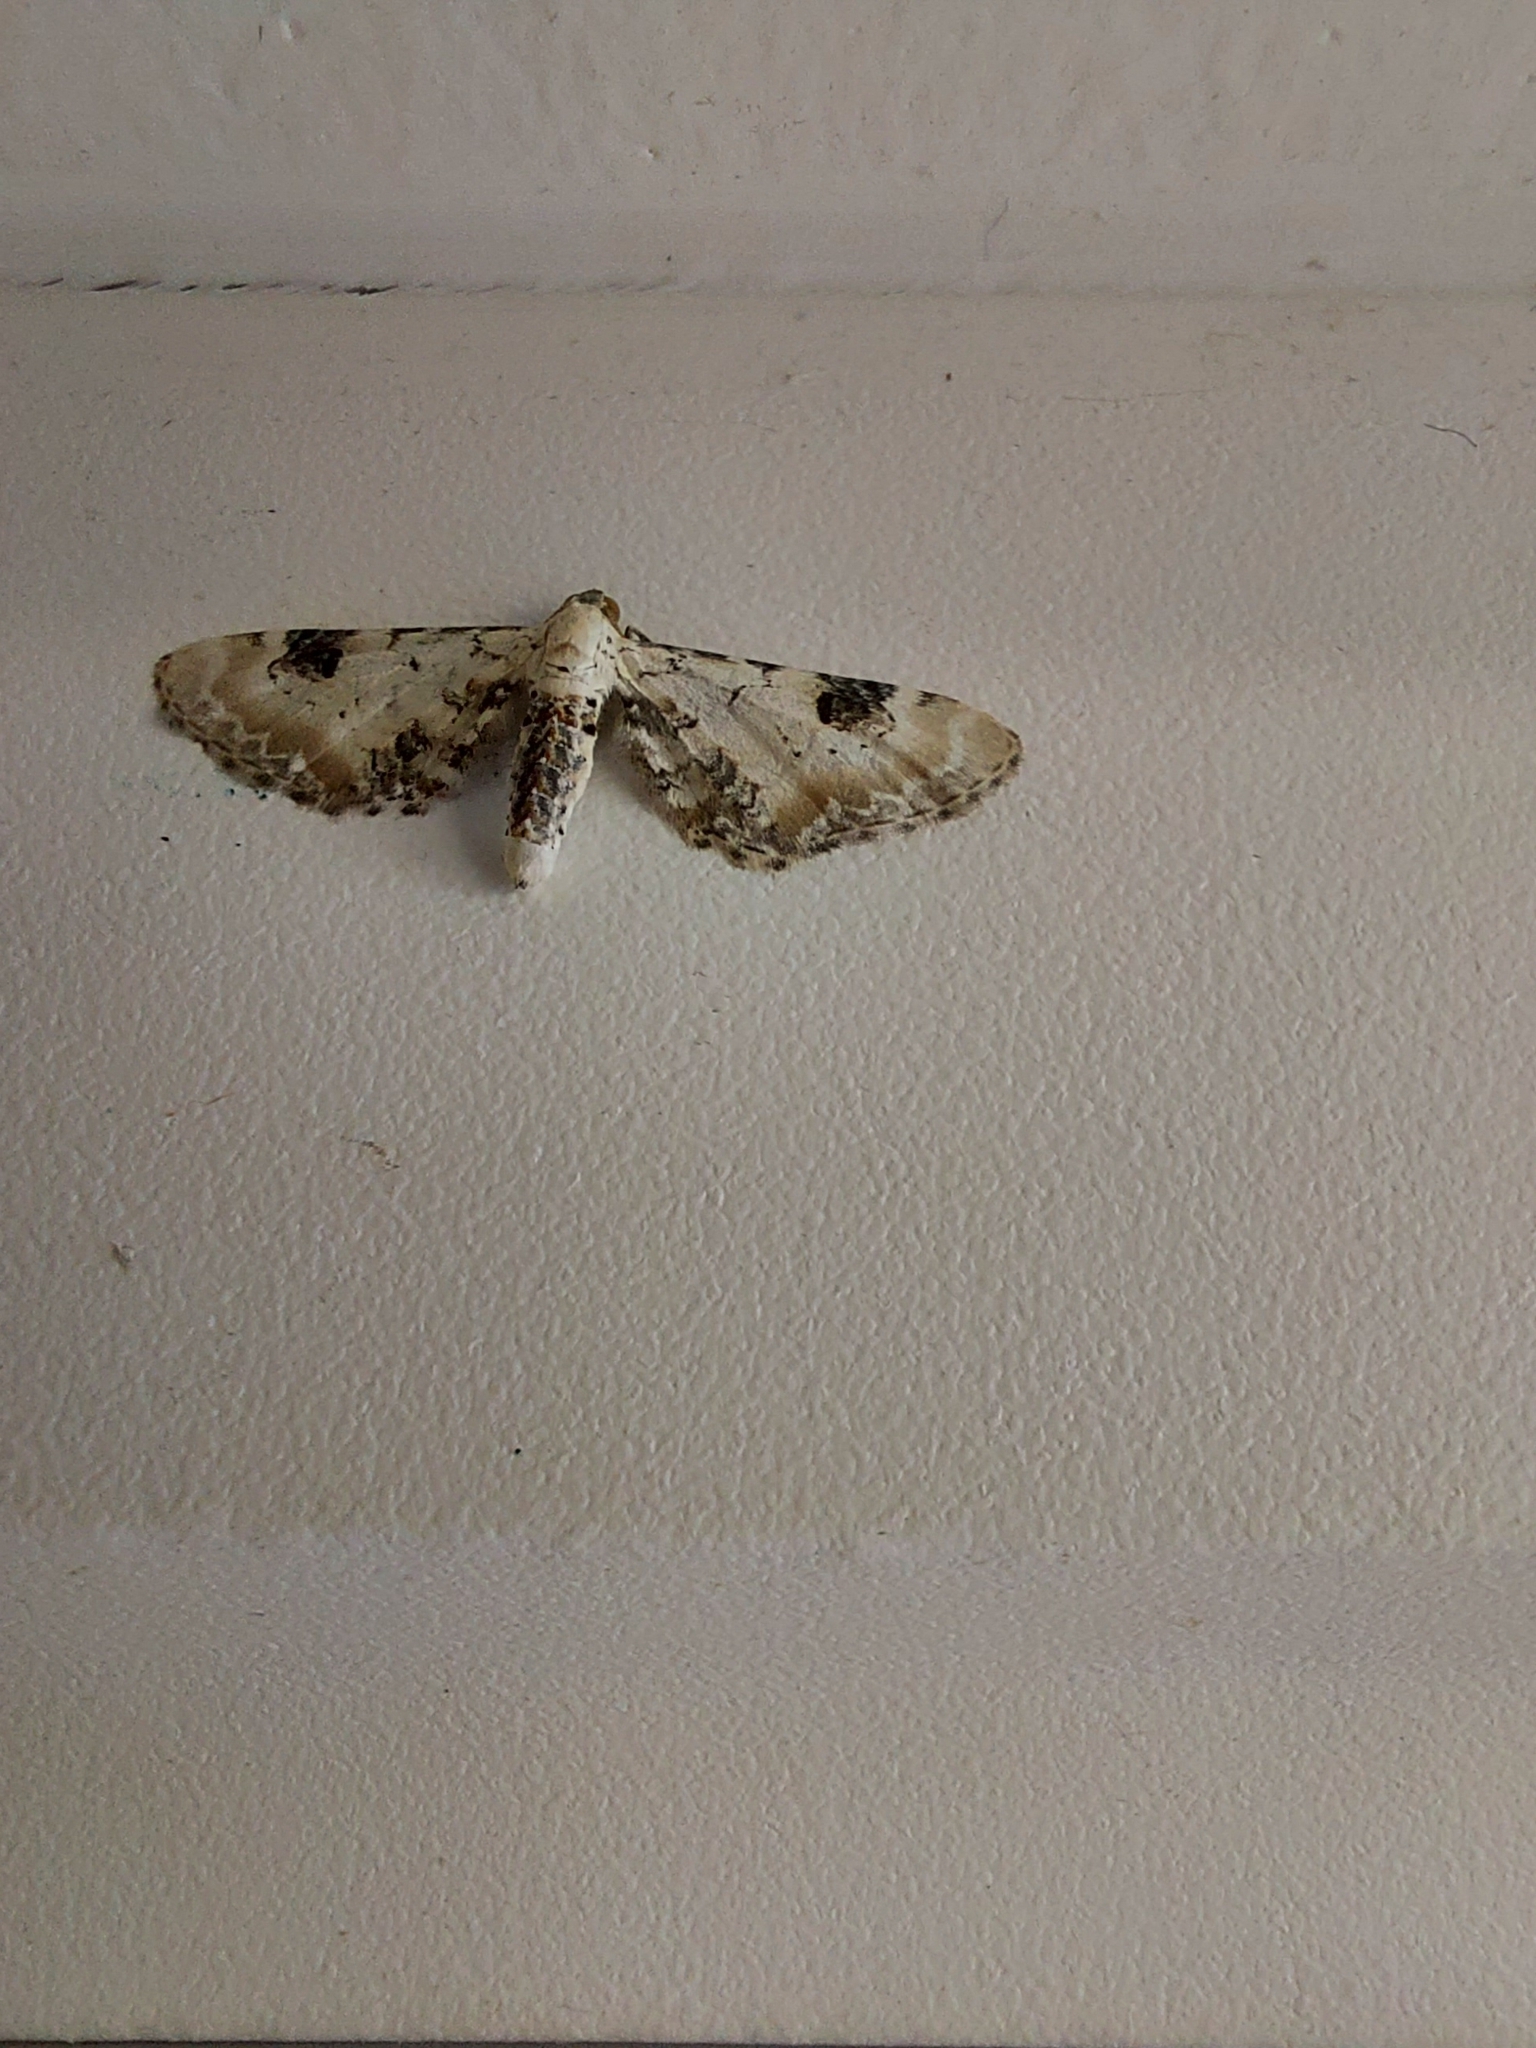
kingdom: Animalia
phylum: Arthropoda
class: Insecta
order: Lepidoptera
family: Geometridae
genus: Eupithecia
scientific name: Eupithecia centaureata
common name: Lime-speck pug
